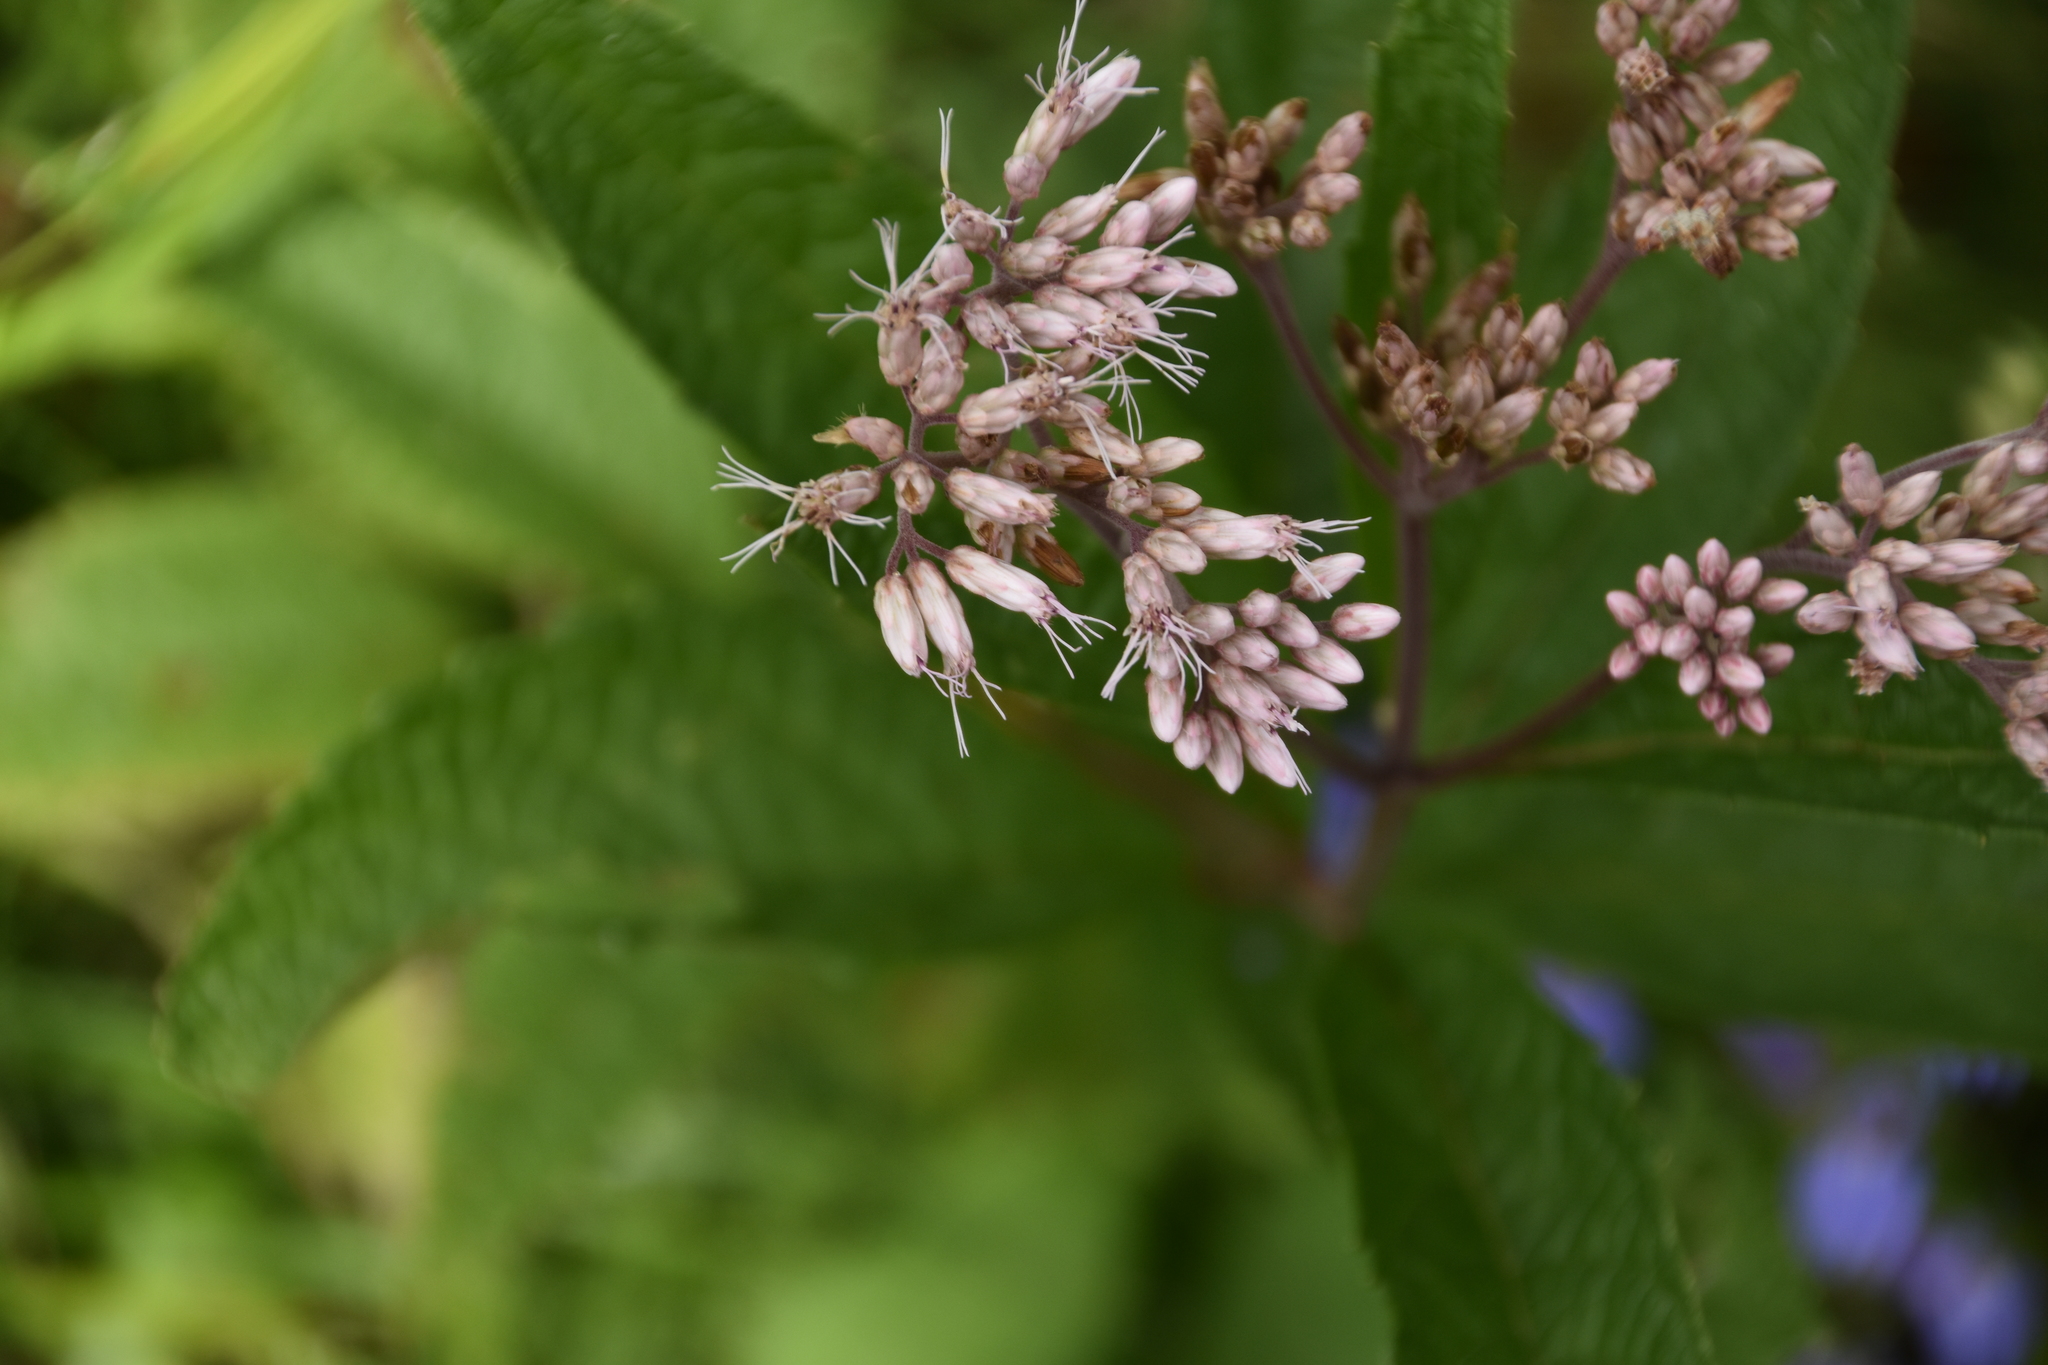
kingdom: Plantae
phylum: Tracheophyta
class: Magnoliopsida
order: Asterales
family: Asteraceae
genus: Eutrochium
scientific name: Eutrochium maculatum
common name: Spotted joe pye weed
